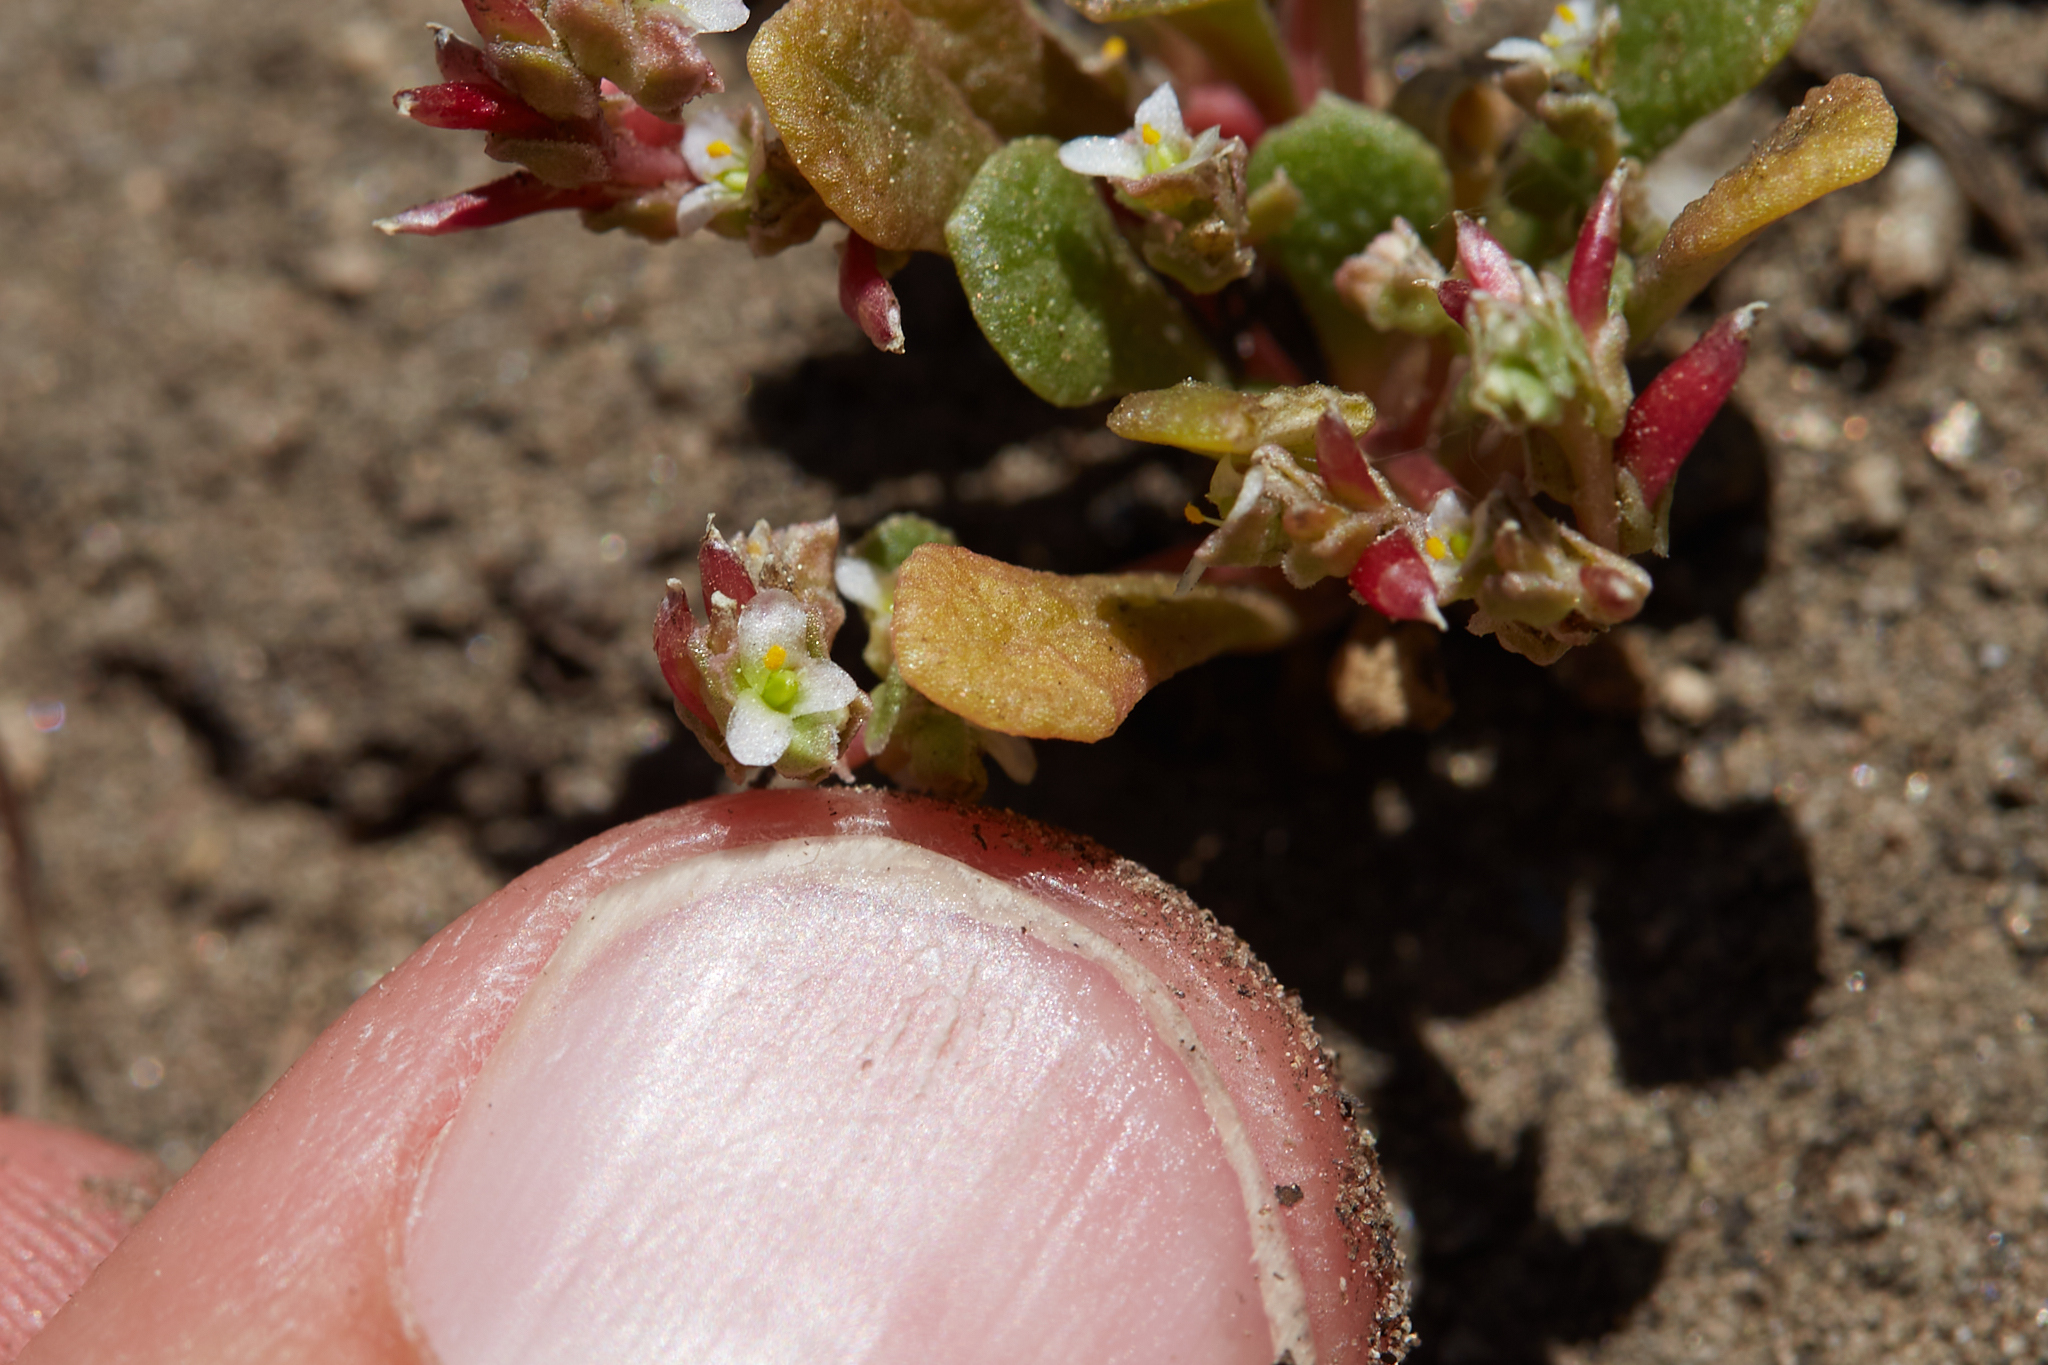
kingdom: Plantae
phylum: Tracheophyta
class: Magnoliopsida
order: Caryophyllales
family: Montiaceae
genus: Calyptridium
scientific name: Calyptridium monandrum
